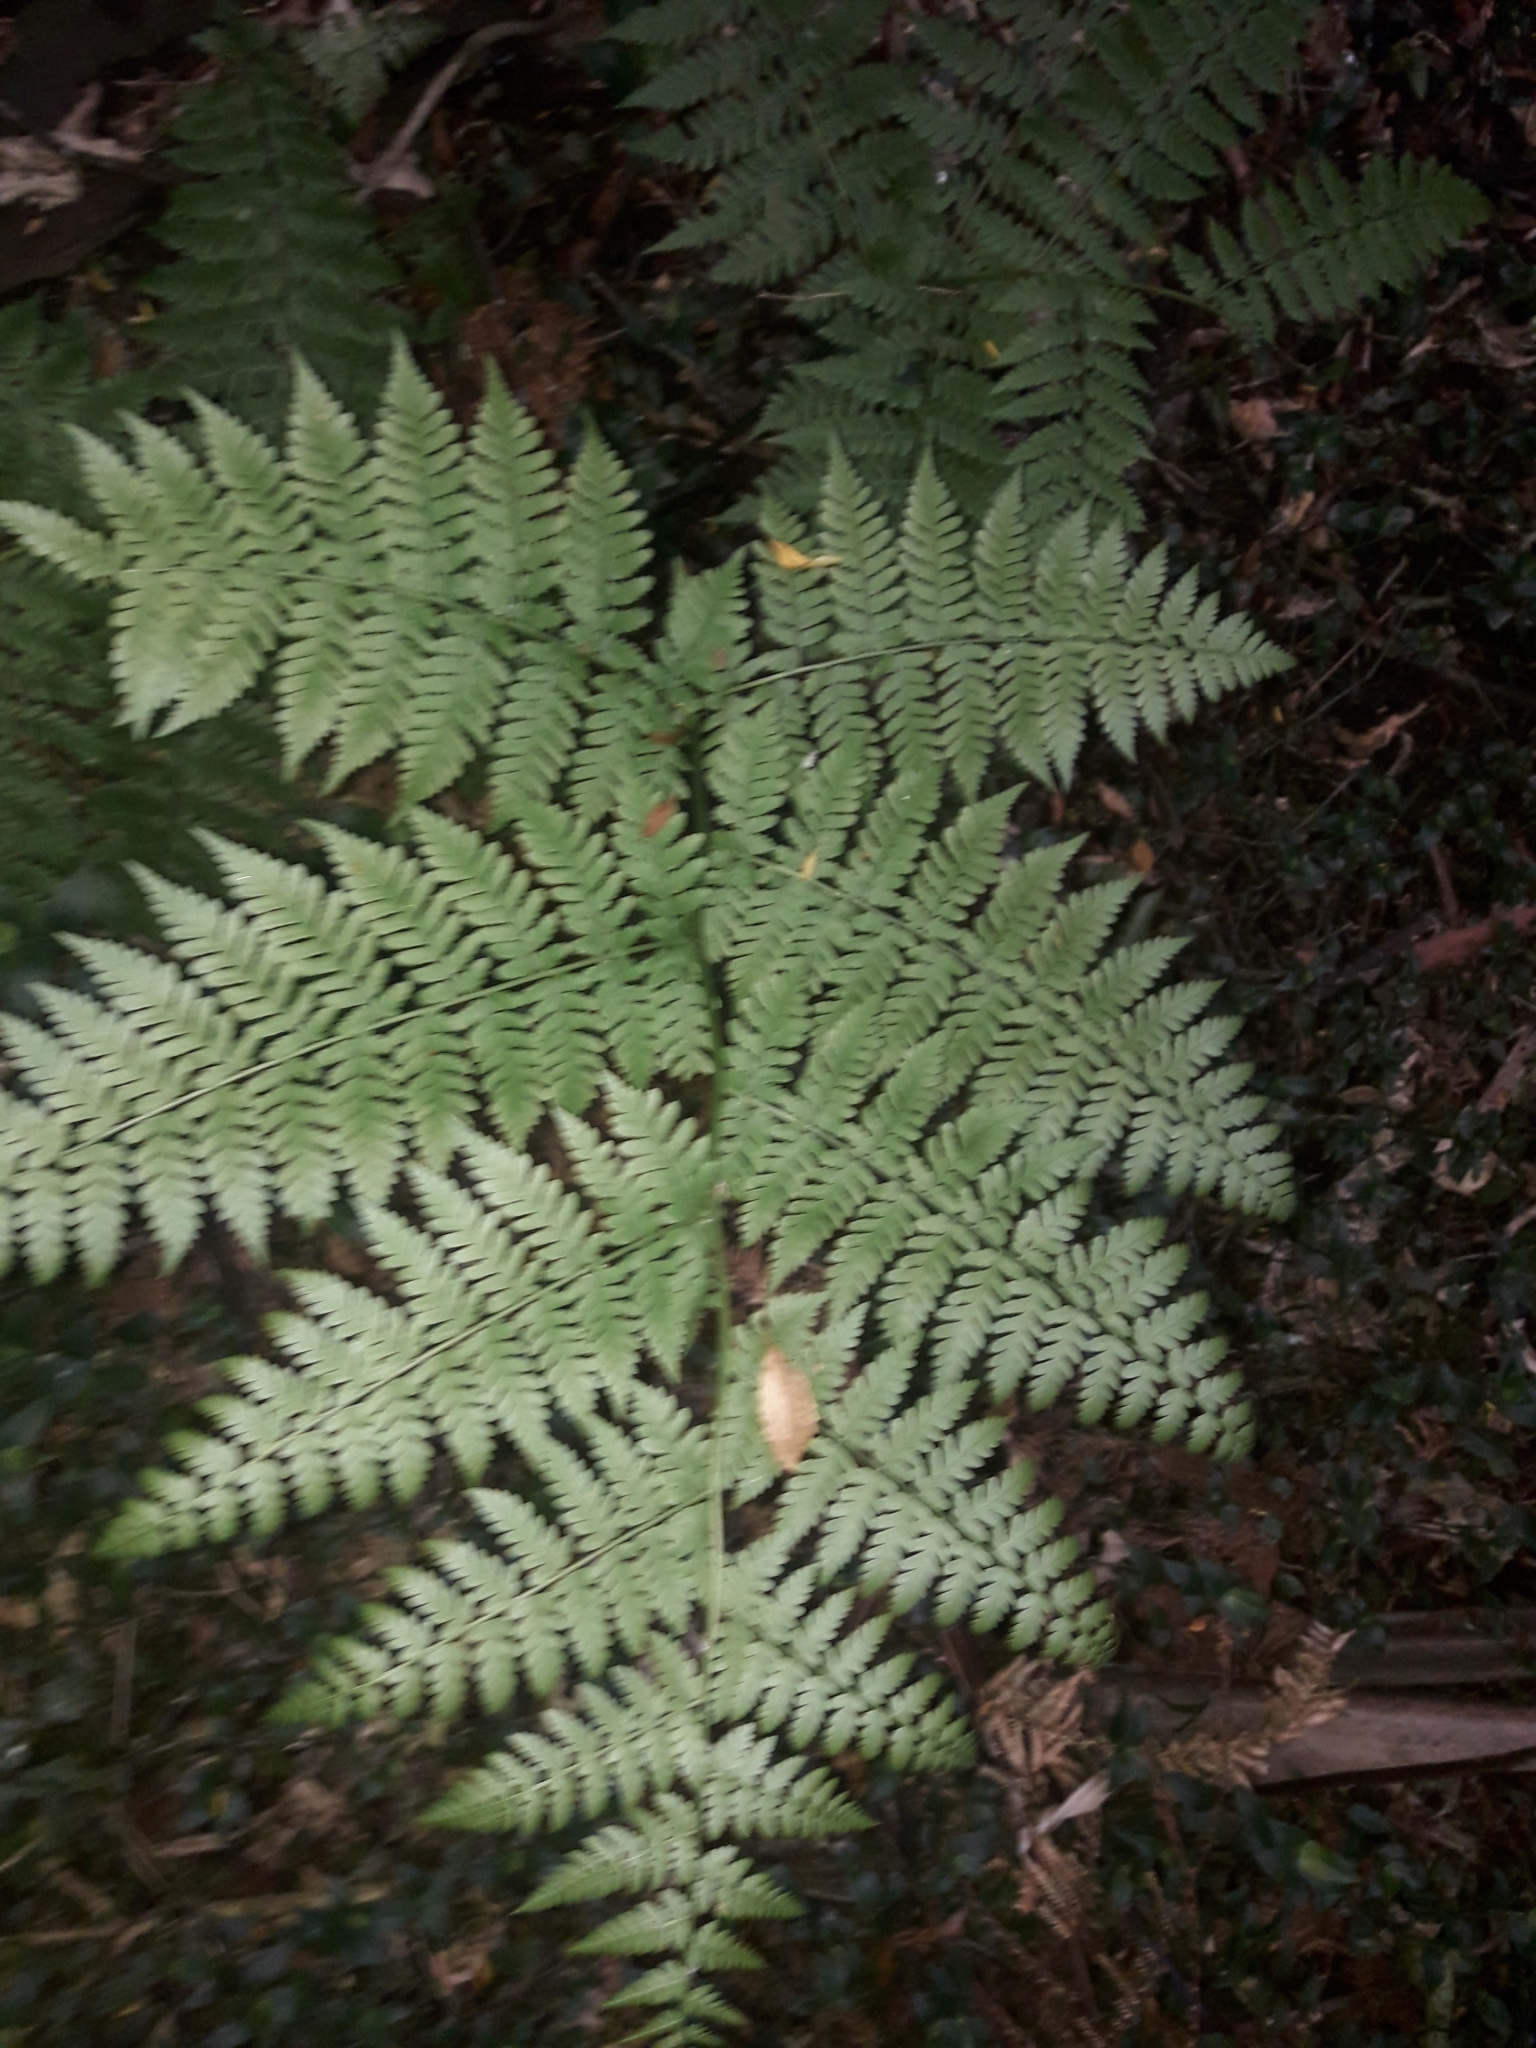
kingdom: Plantae
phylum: Tracheophyta
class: Polypodiopsida
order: Polypodiales
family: Athyriaceae
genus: Diplazium
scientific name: Diplazium australe
